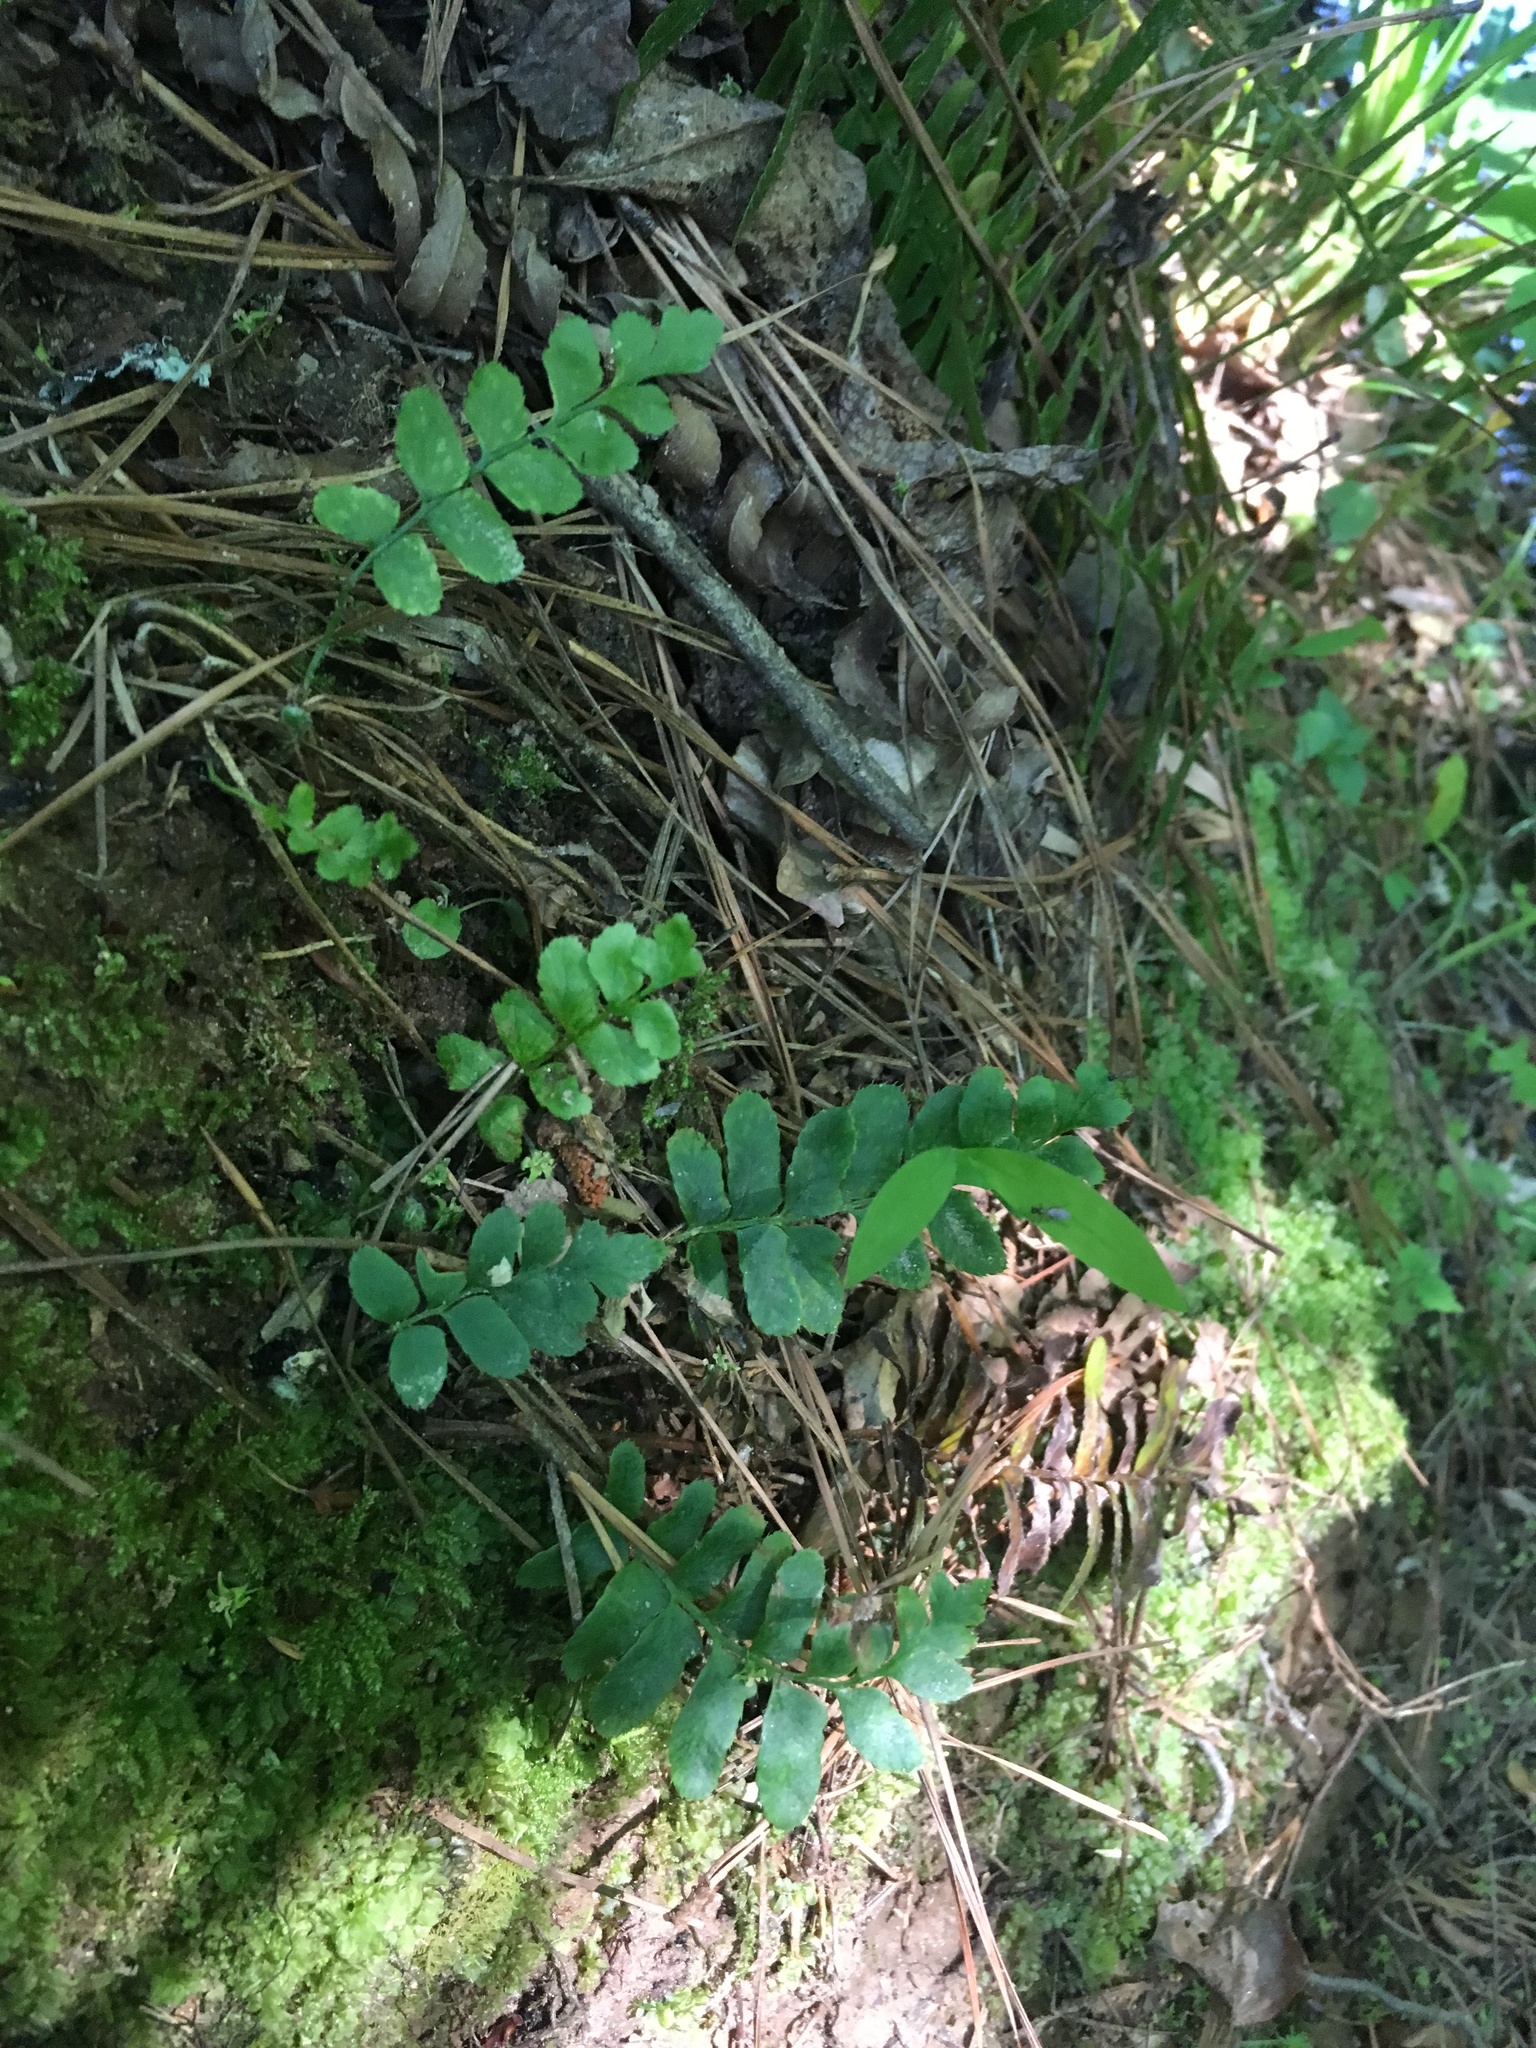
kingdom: Plantae
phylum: Tracheophyta
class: Polypodiopsida
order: Polypodiales
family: Dryopteridaceae
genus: Polystichum
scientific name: Polystichum acrostichoides
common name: Christmas fern
